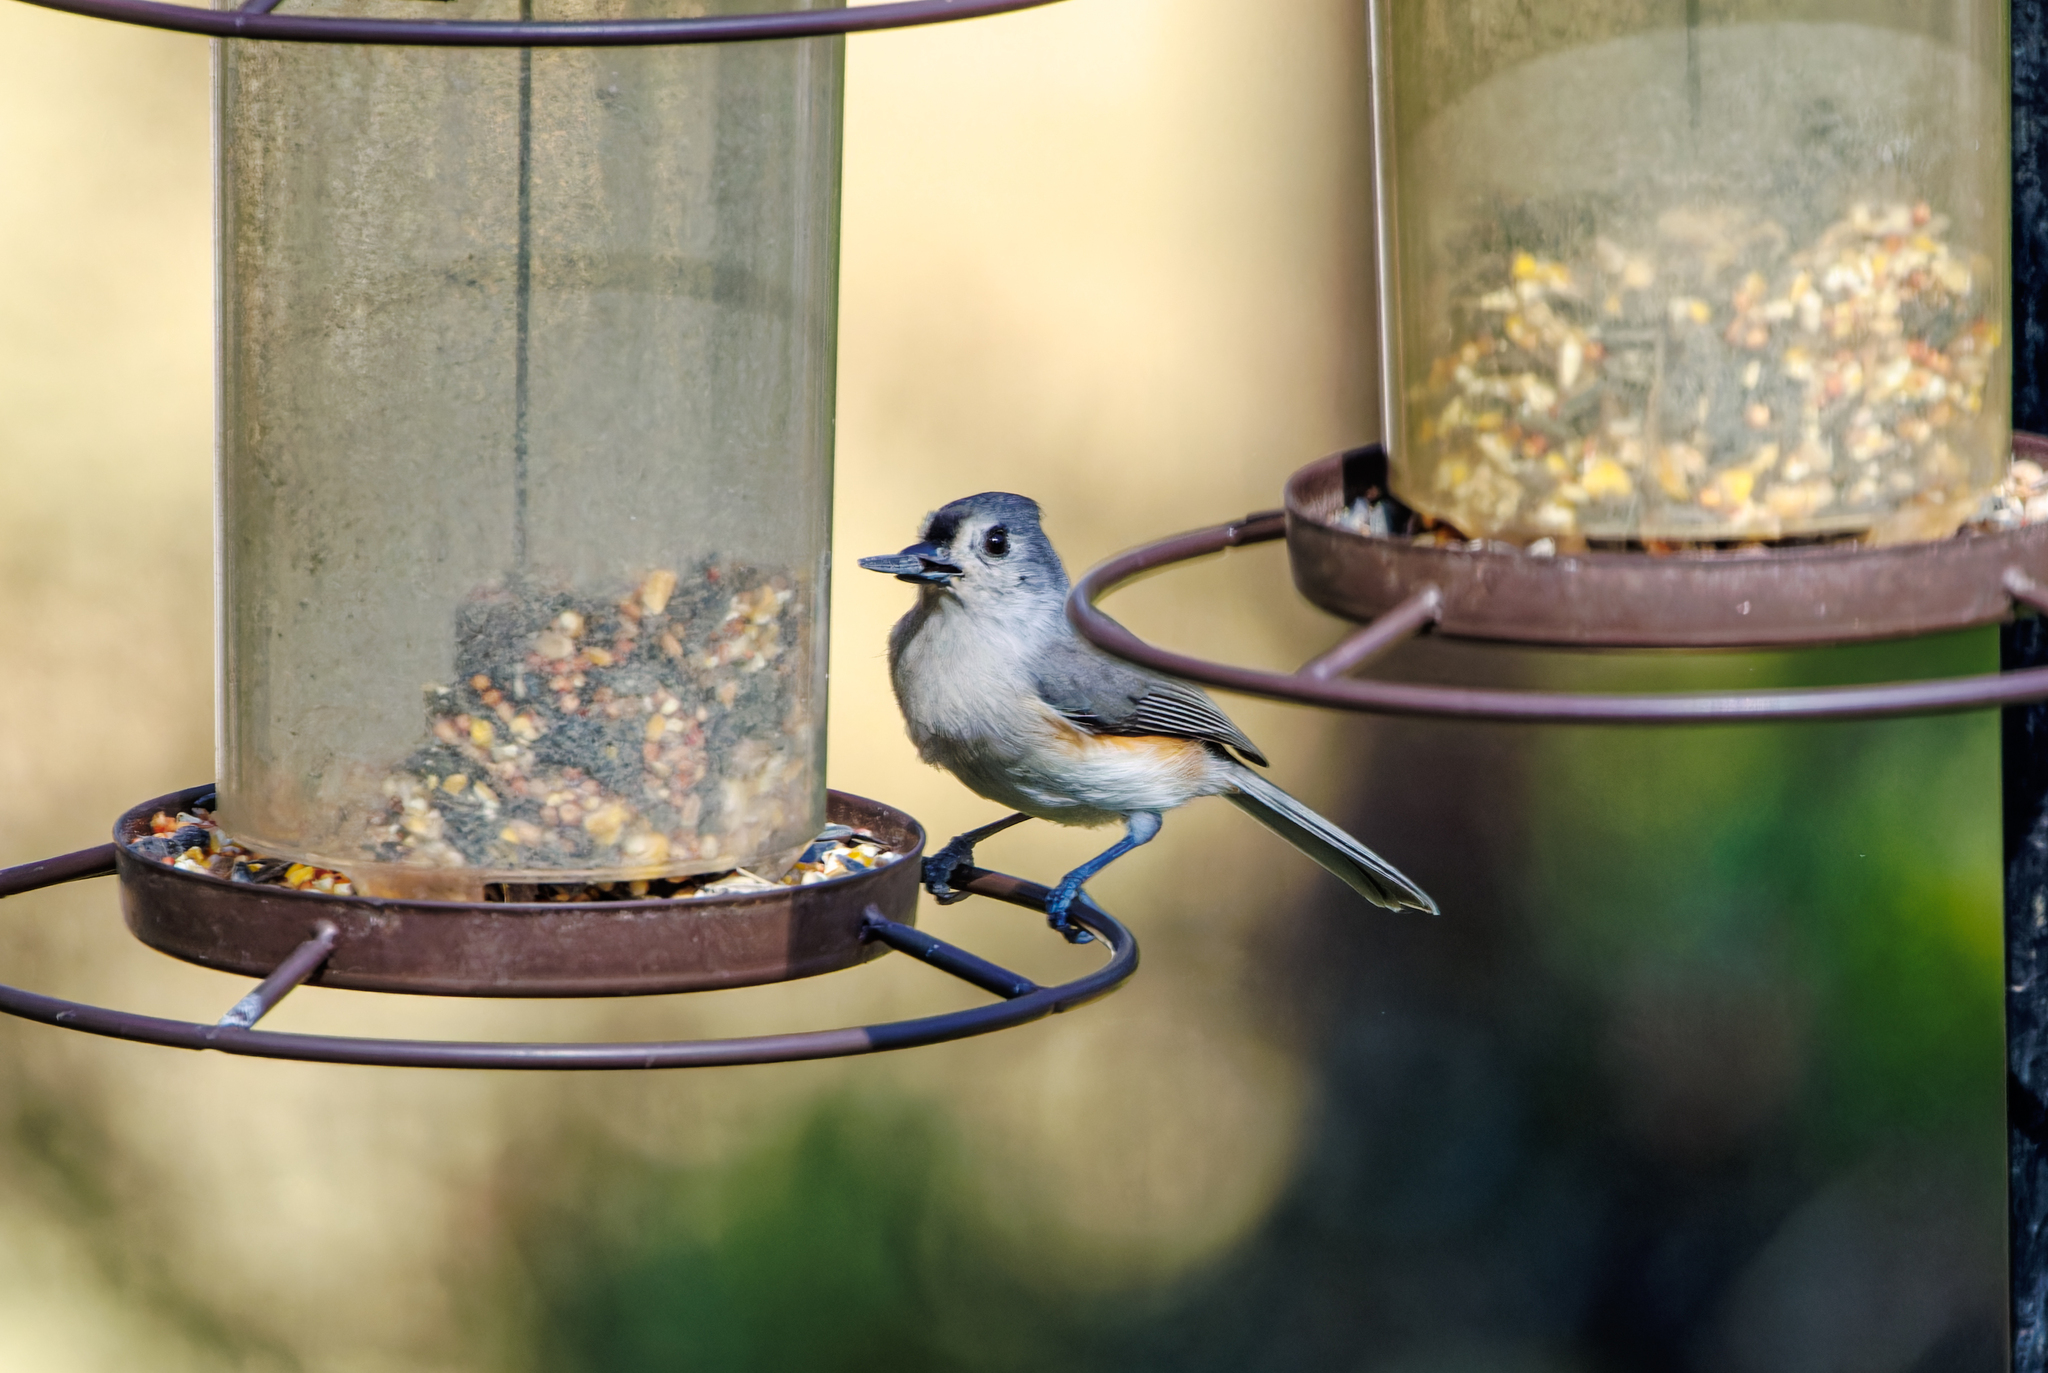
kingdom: Animalia
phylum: Chordata
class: Aves
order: Passeriformes
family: Paridae
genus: Baeolophus
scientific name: Baeolophus bicolor
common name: Tufted titmouse
